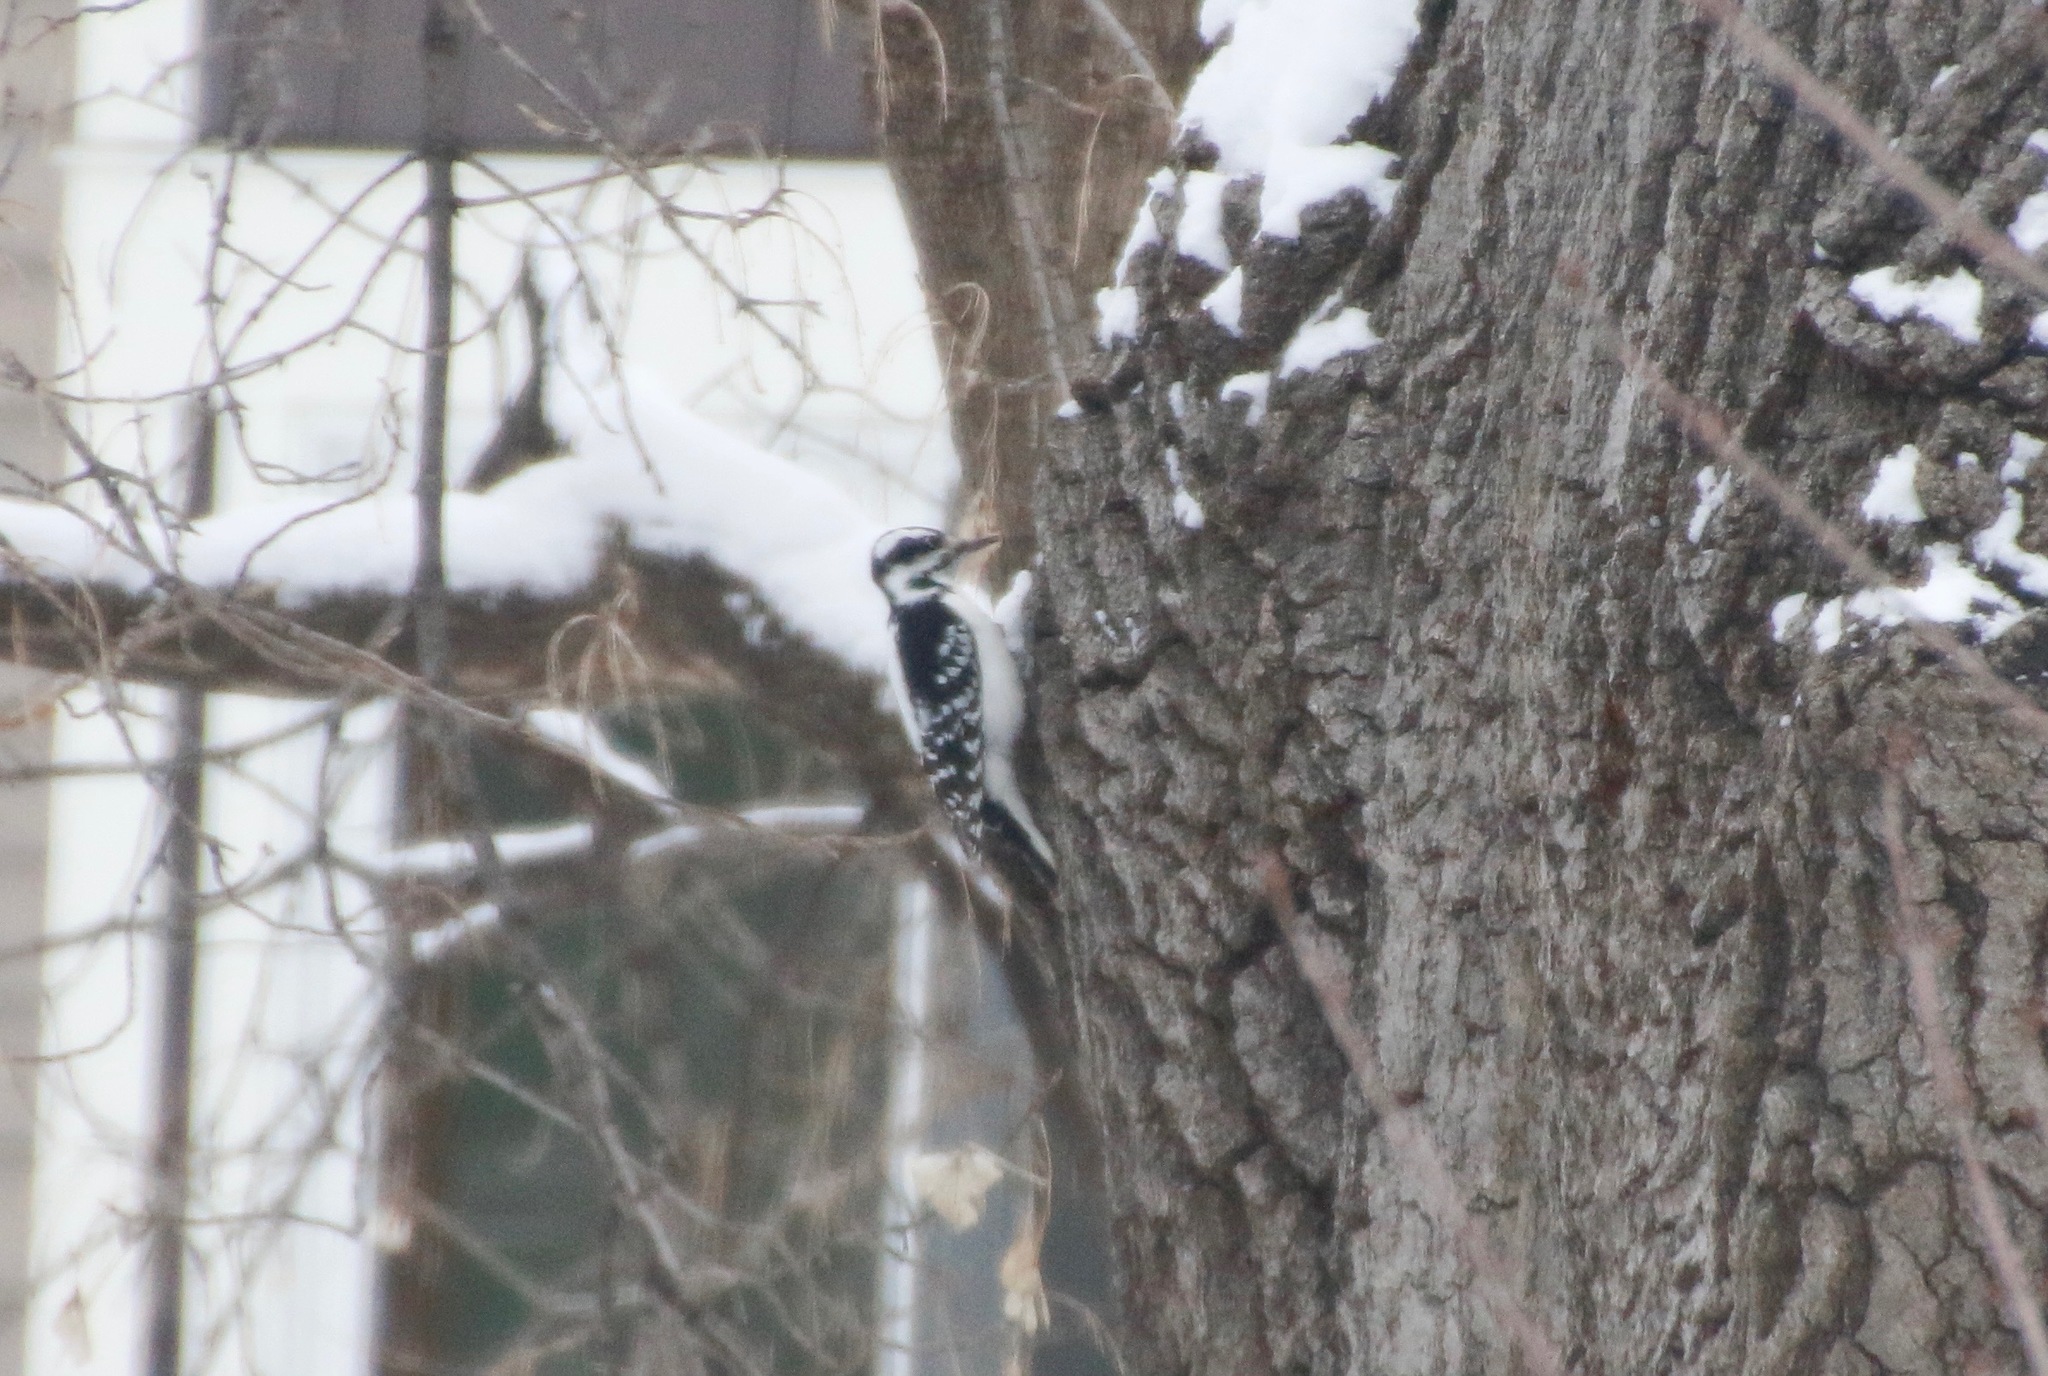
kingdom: Animalia
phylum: Chordata
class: Aves
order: Piciformes
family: Picidae
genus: Leuconotopicus
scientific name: Leuconotopicus villosus
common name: Hairy woodpecker
